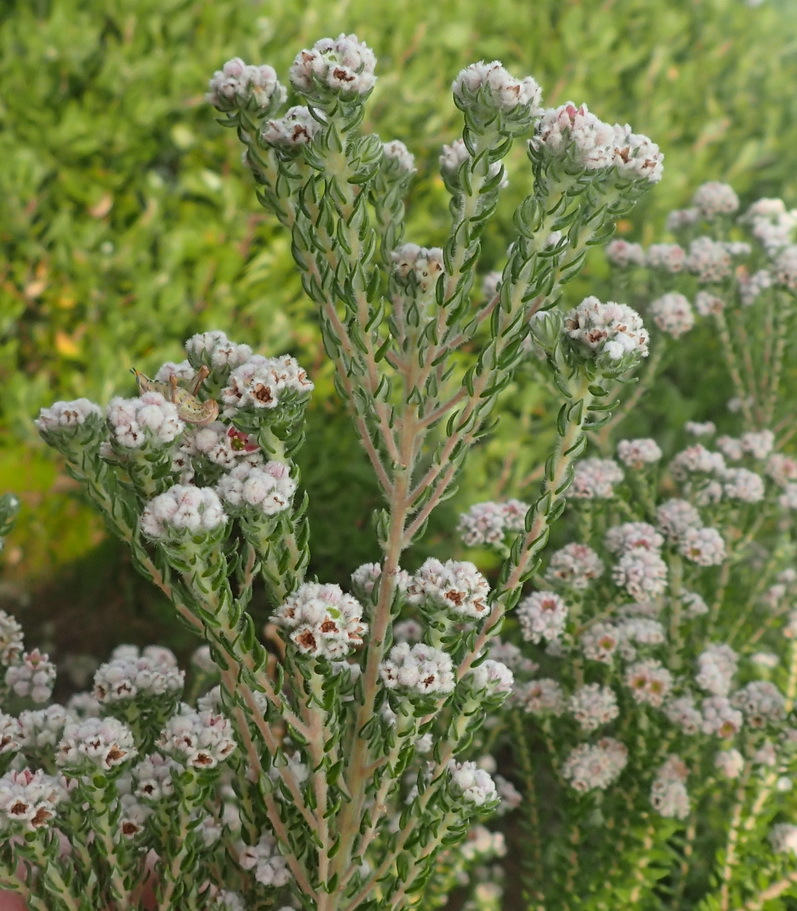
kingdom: Plantae
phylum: Tracheophyta
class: Magnoliopsida
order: Rosales
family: Rhamnaceae
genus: Phylica
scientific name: Phylica purpurea
